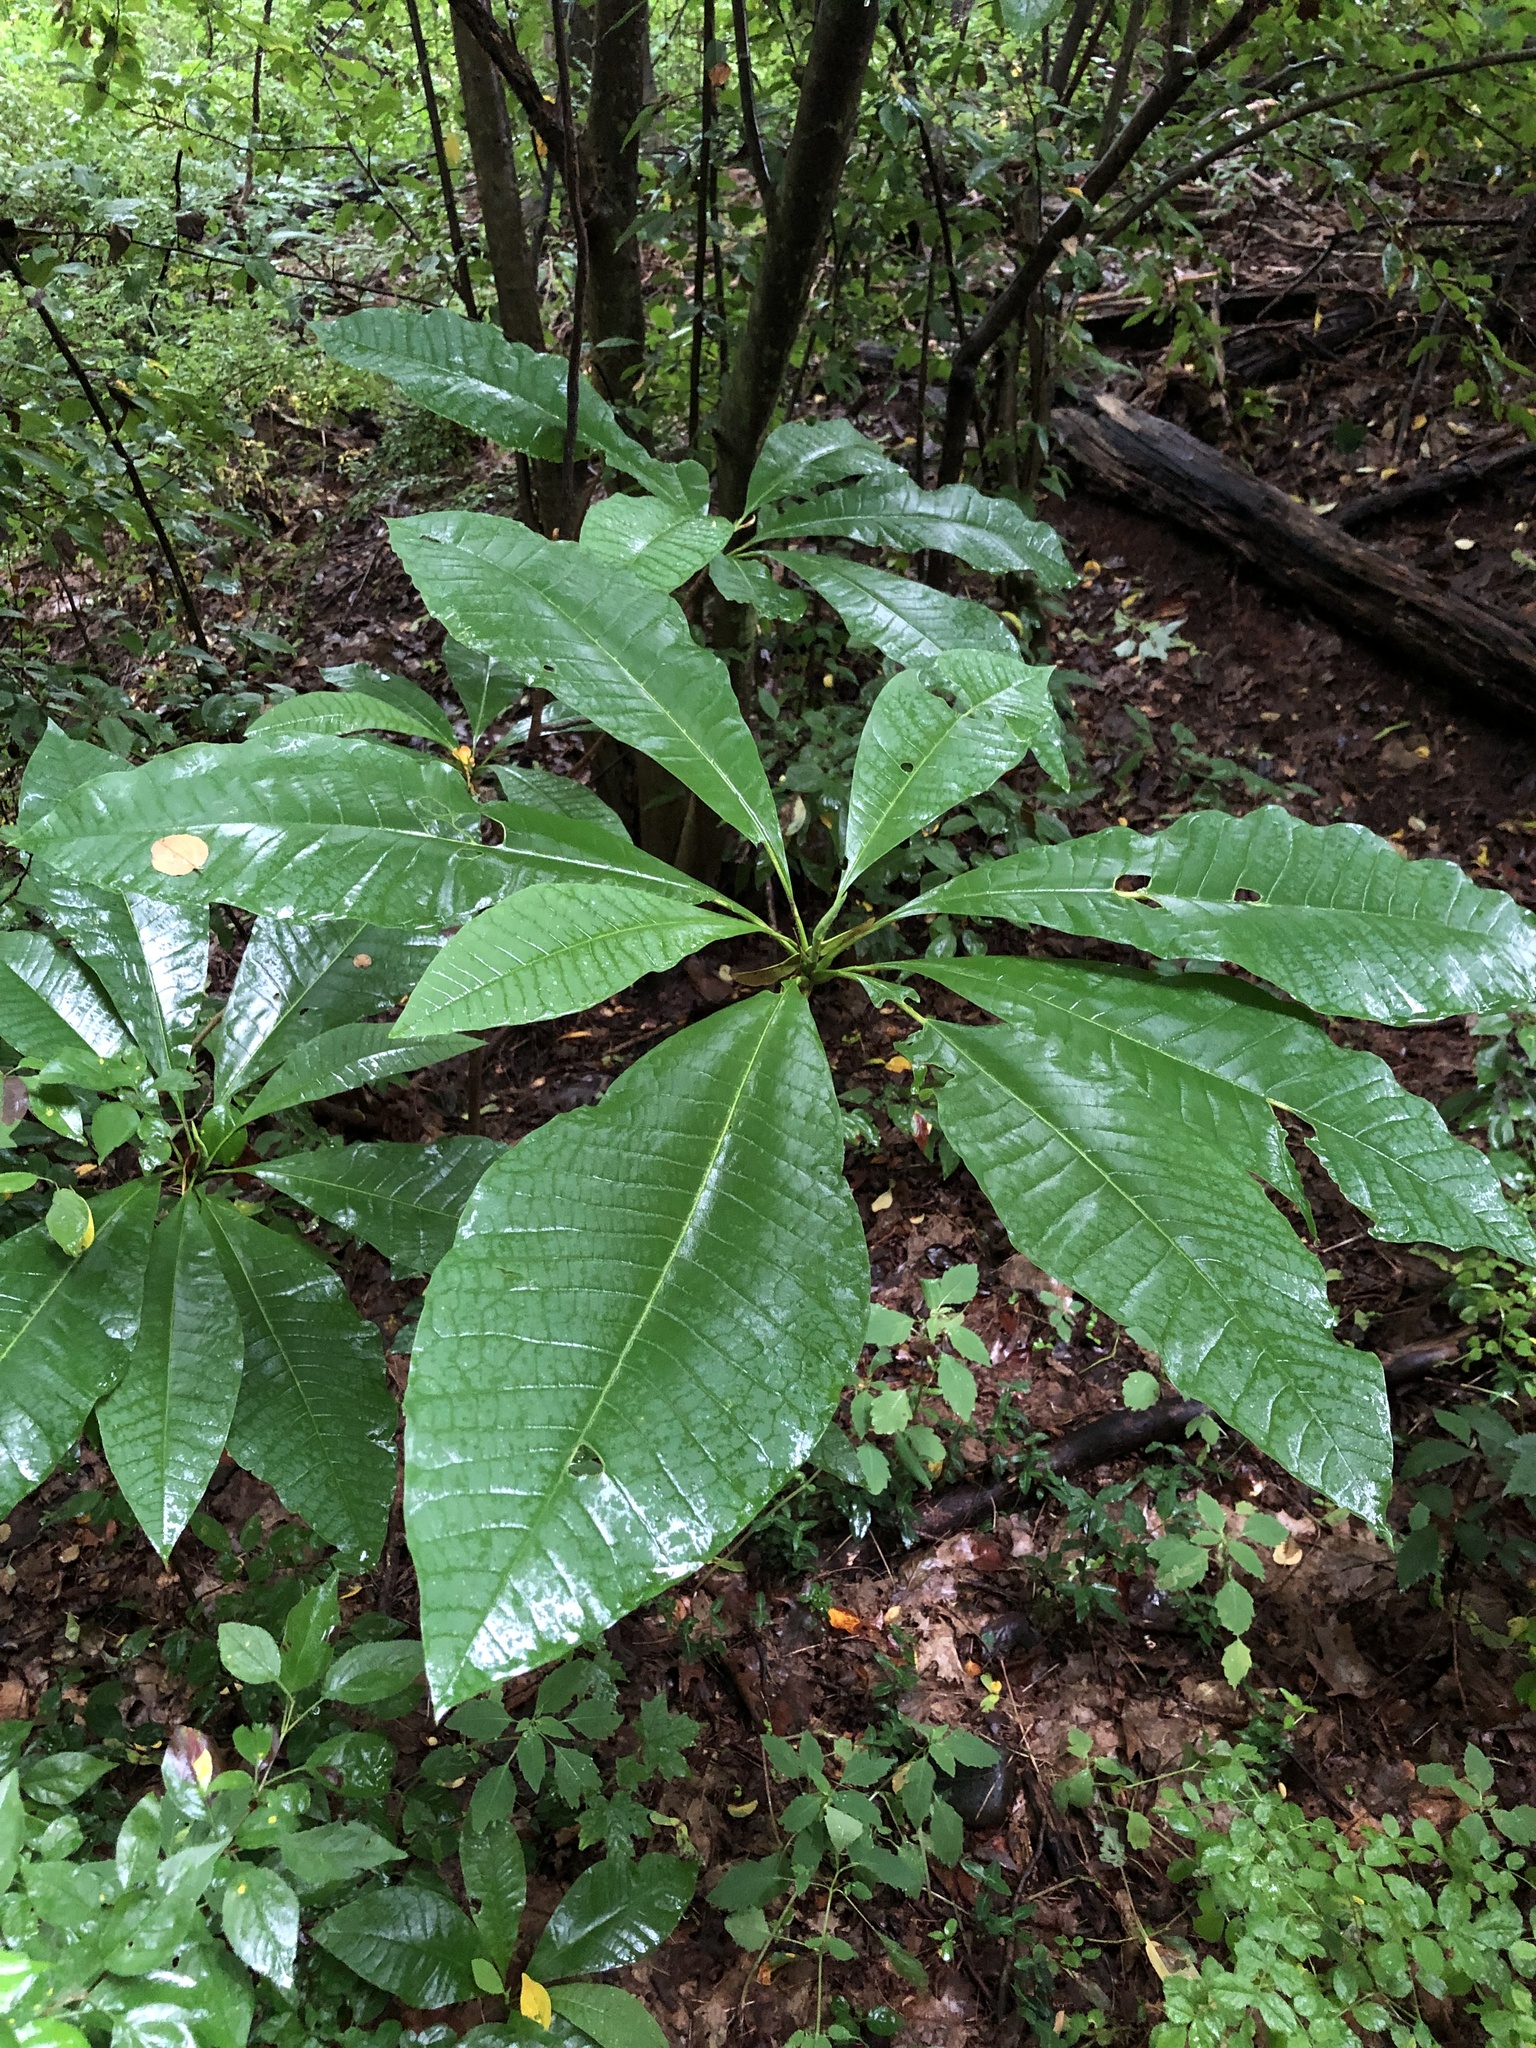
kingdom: Plantae
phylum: Tracheophyta
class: Magnoliopsida
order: Magnoliales
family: Magnoliaceae
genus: Magnolia
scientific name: Magnolia tripetala
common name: Umbrella magnolia
